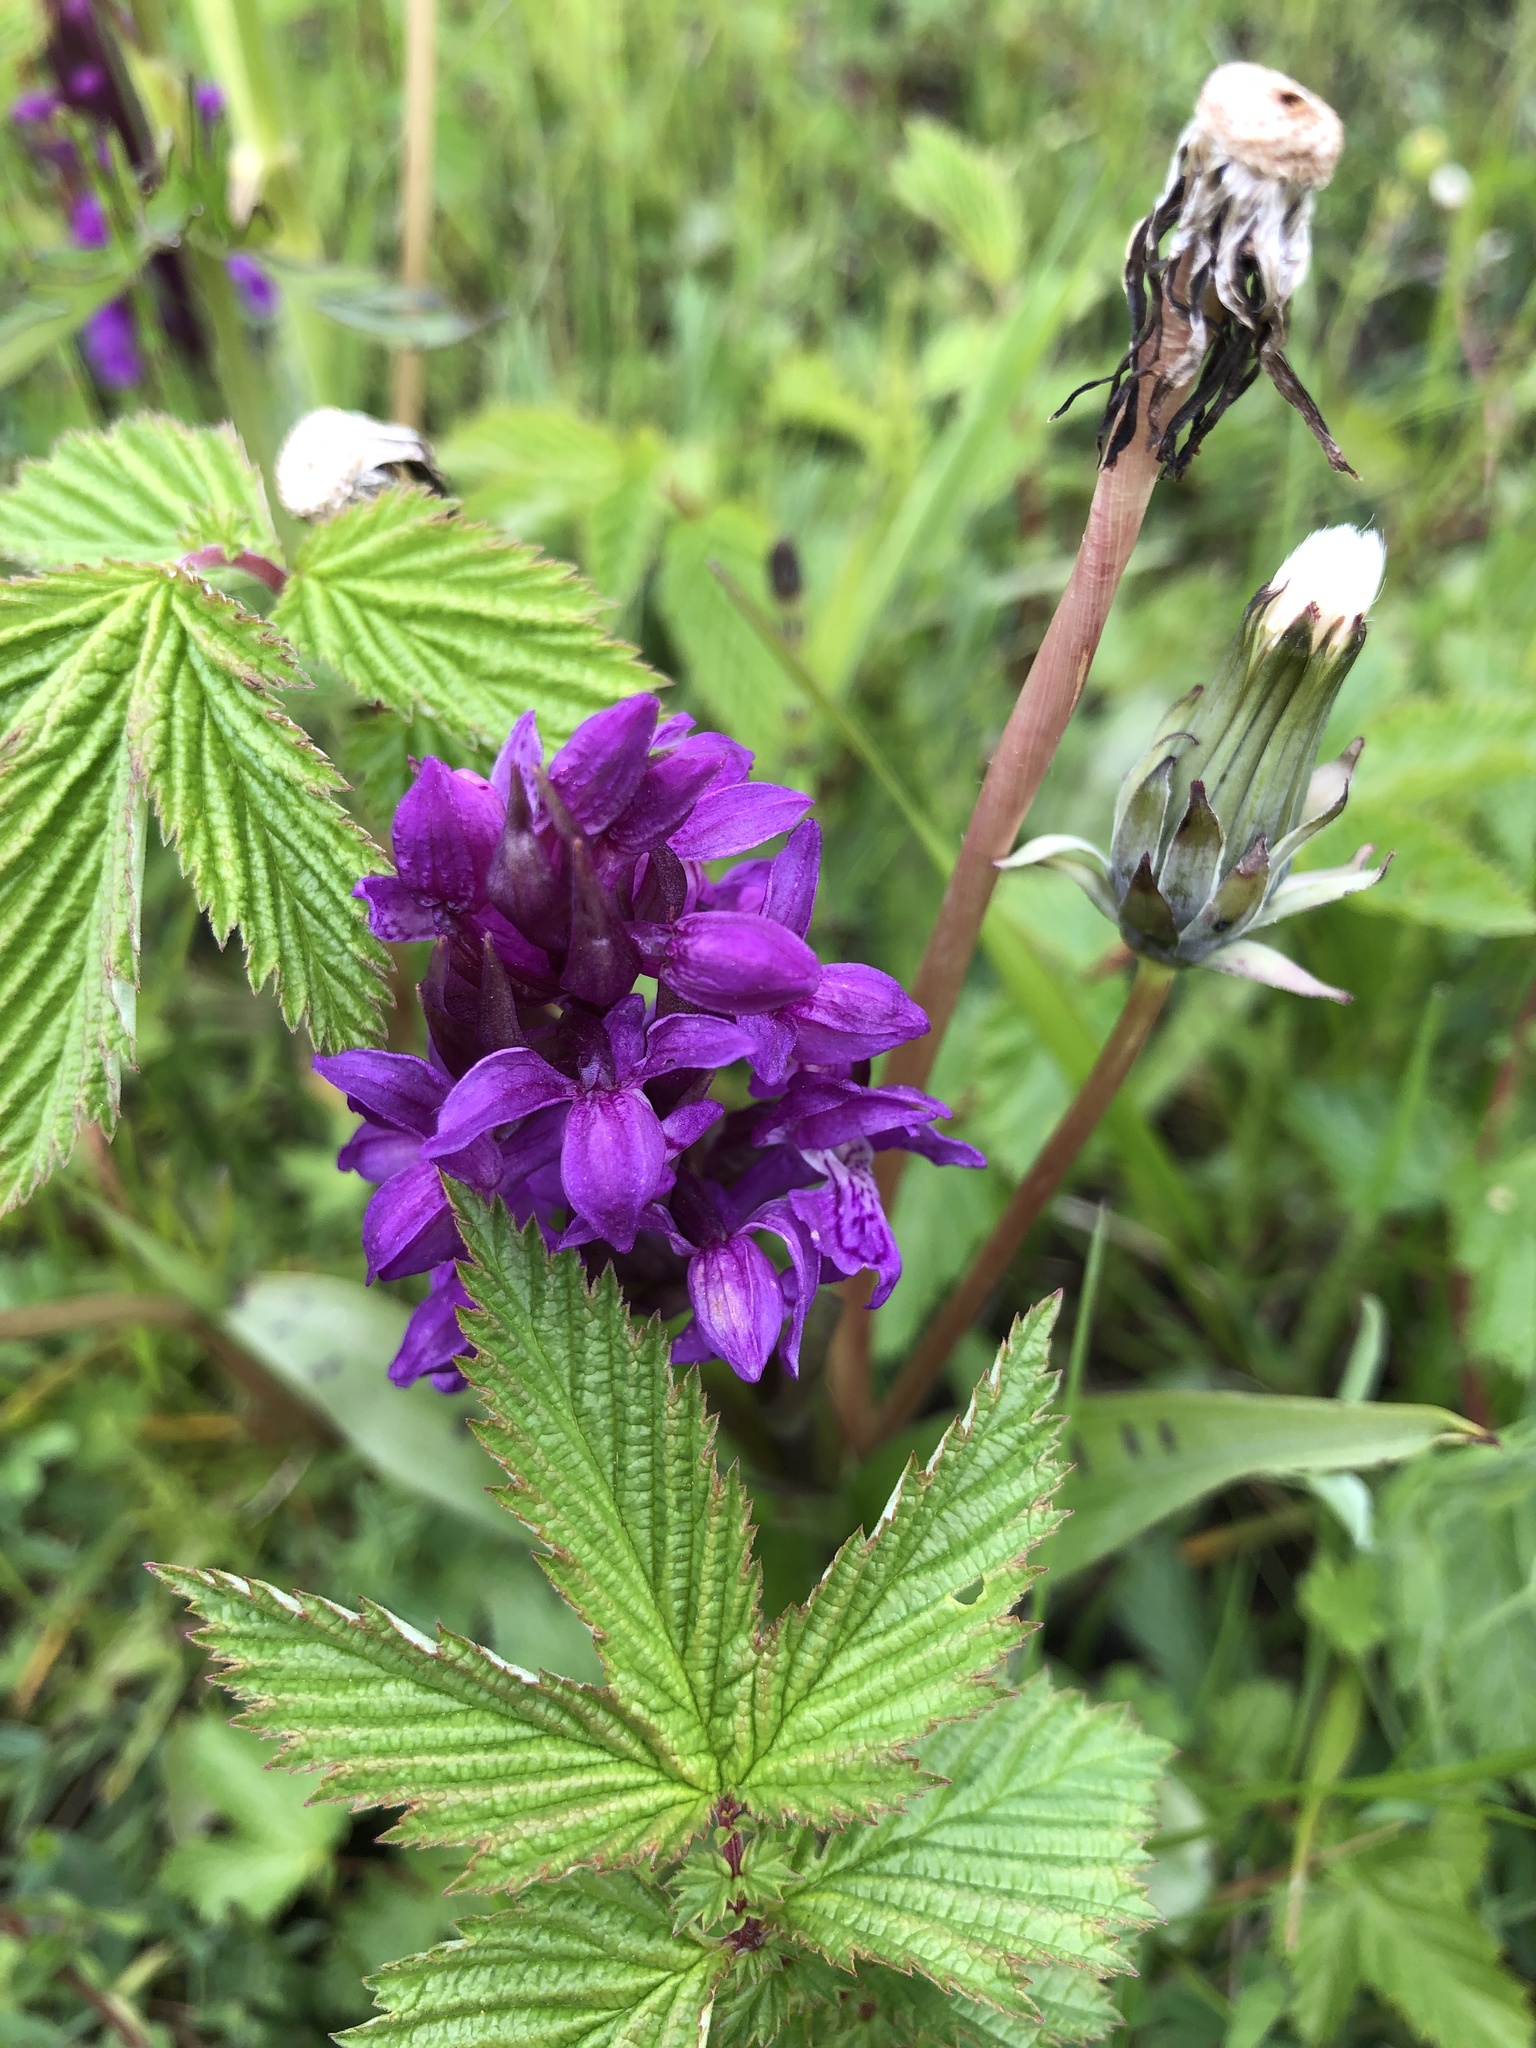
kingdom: Plantae
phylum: Tracheophyta
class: Liliopsida
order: Asparagales
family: Orchidaceae
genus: Dactylorhiza
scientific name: Dactylorhiza majalis
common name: Marsh orchid
